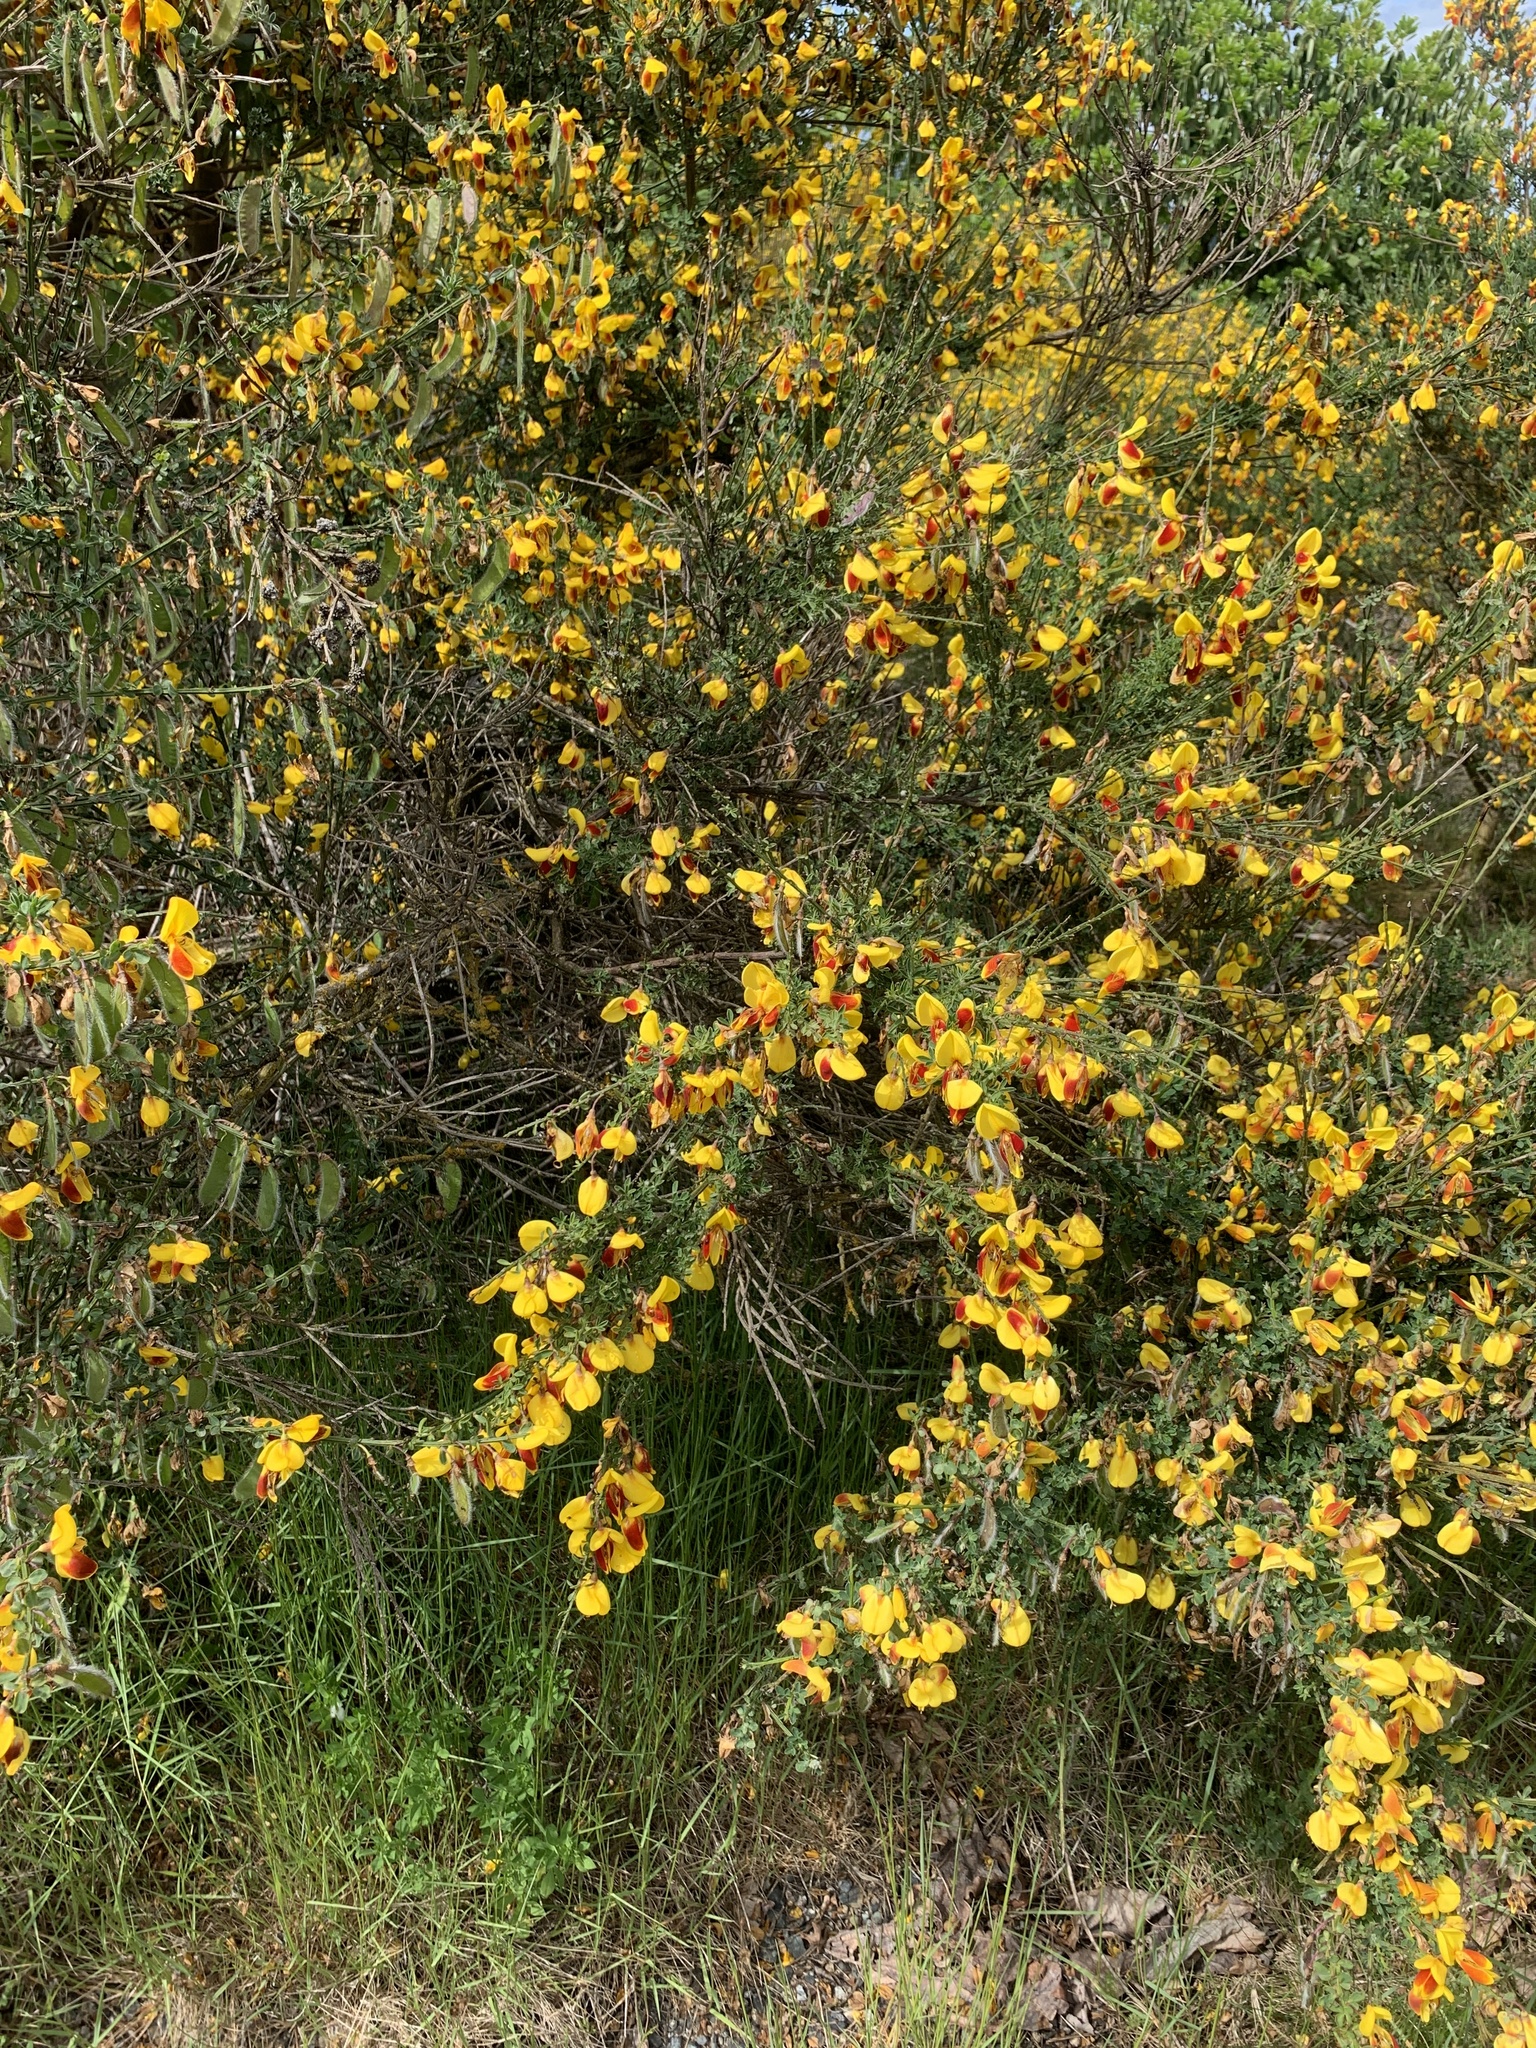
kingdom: Plantae
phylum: Tracheophyta
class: Magnoliopsida
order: Fabales
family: Fabaceae
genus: Cytisus
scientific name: Cytisus scoparius
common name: Scotch broom
